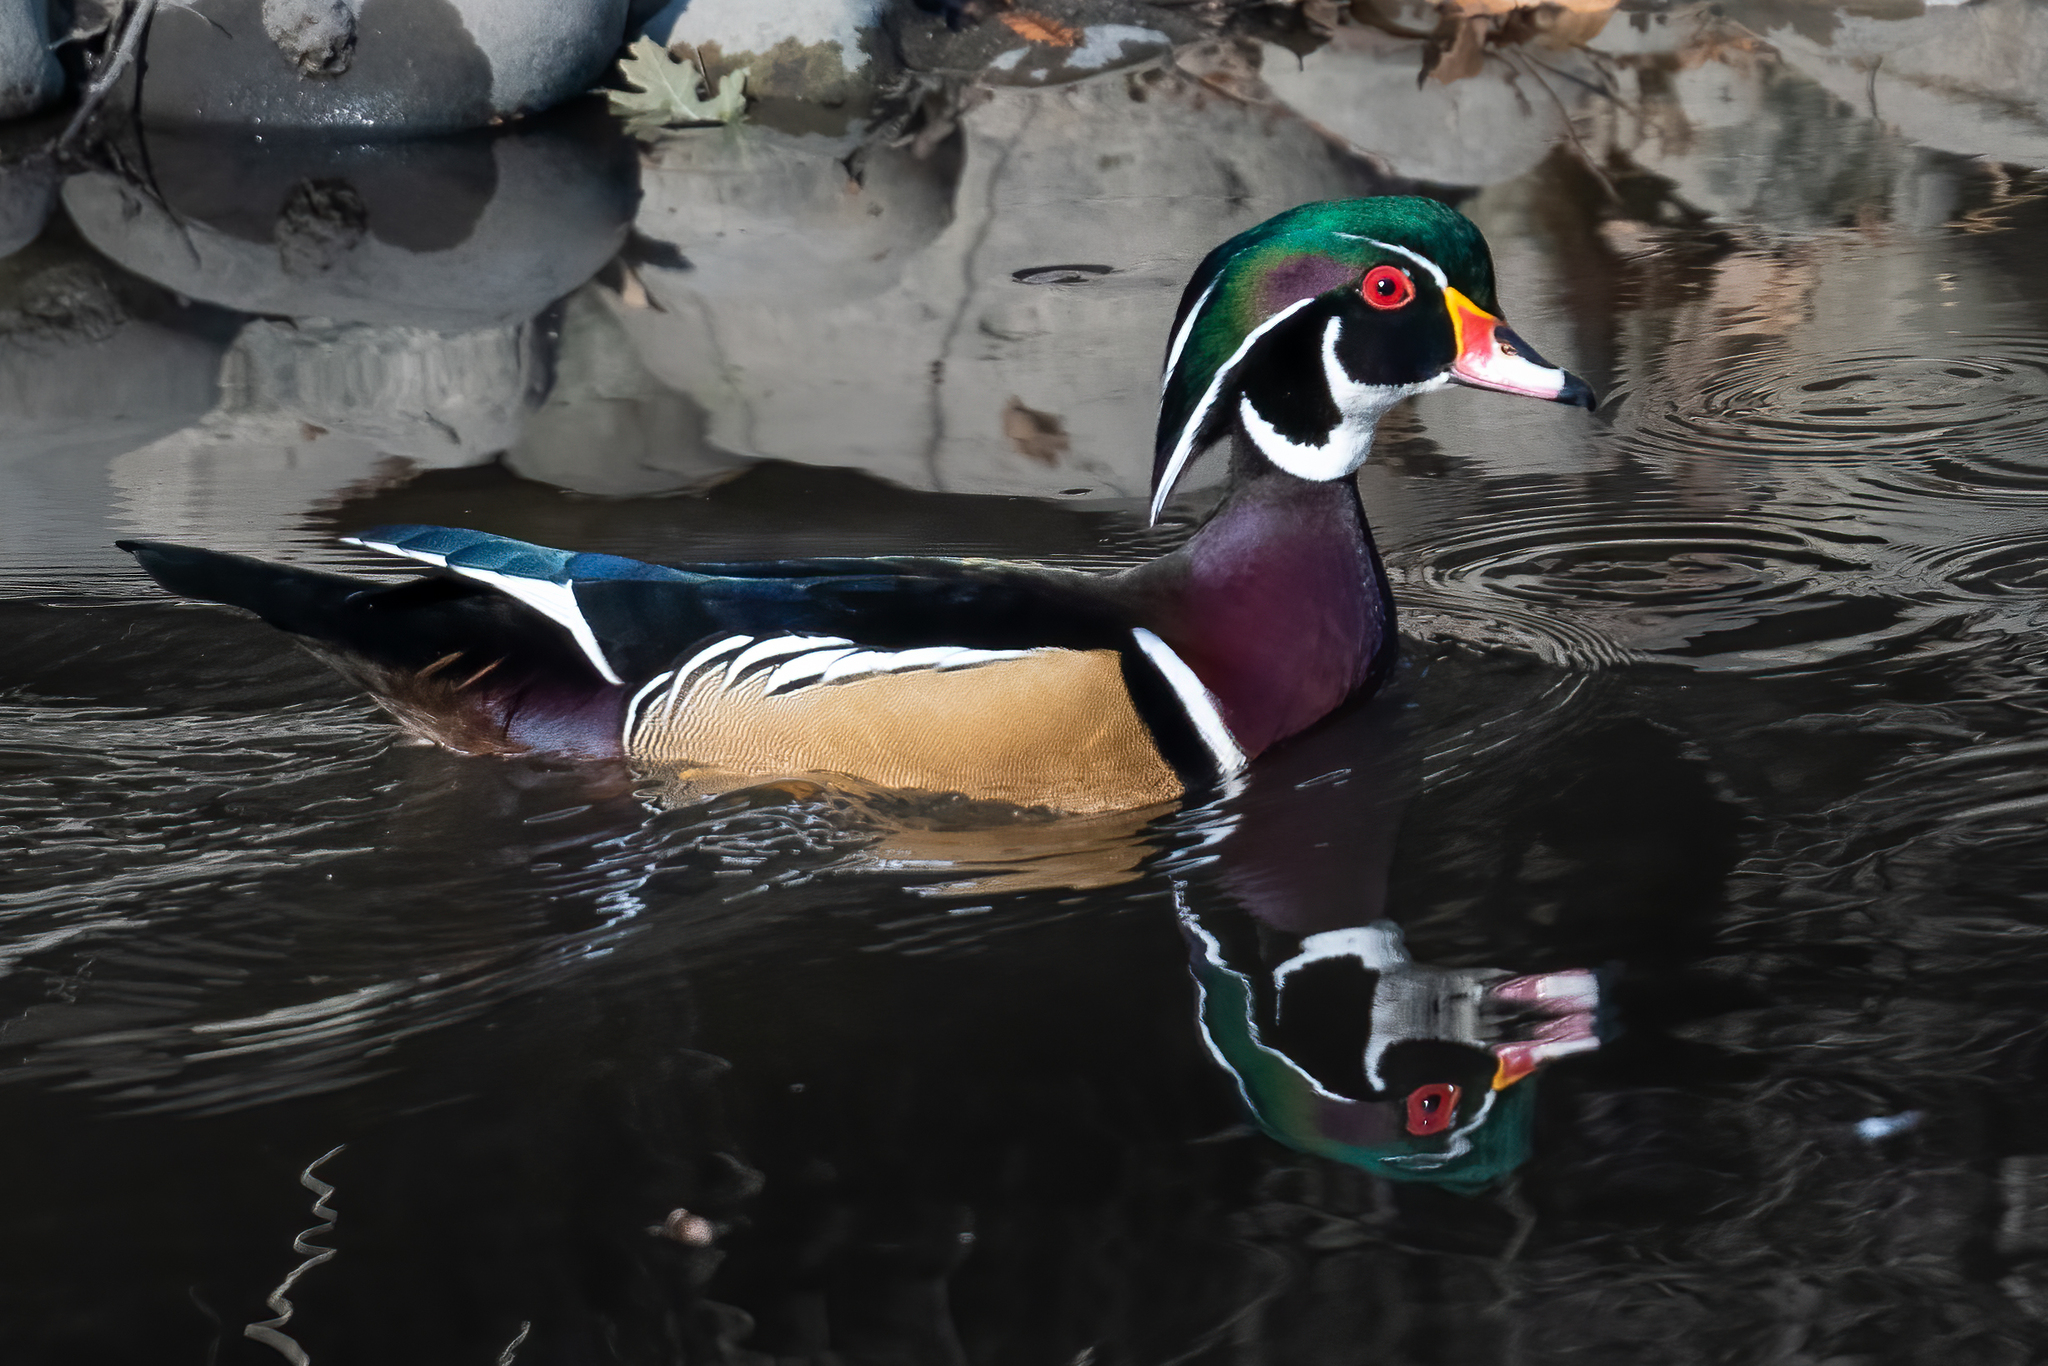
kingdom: Animalia
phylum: Chordata
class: Aves
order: Anseriformes
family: Anatidae
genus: Aix
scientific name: Aix sponsa
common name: Wood duck
